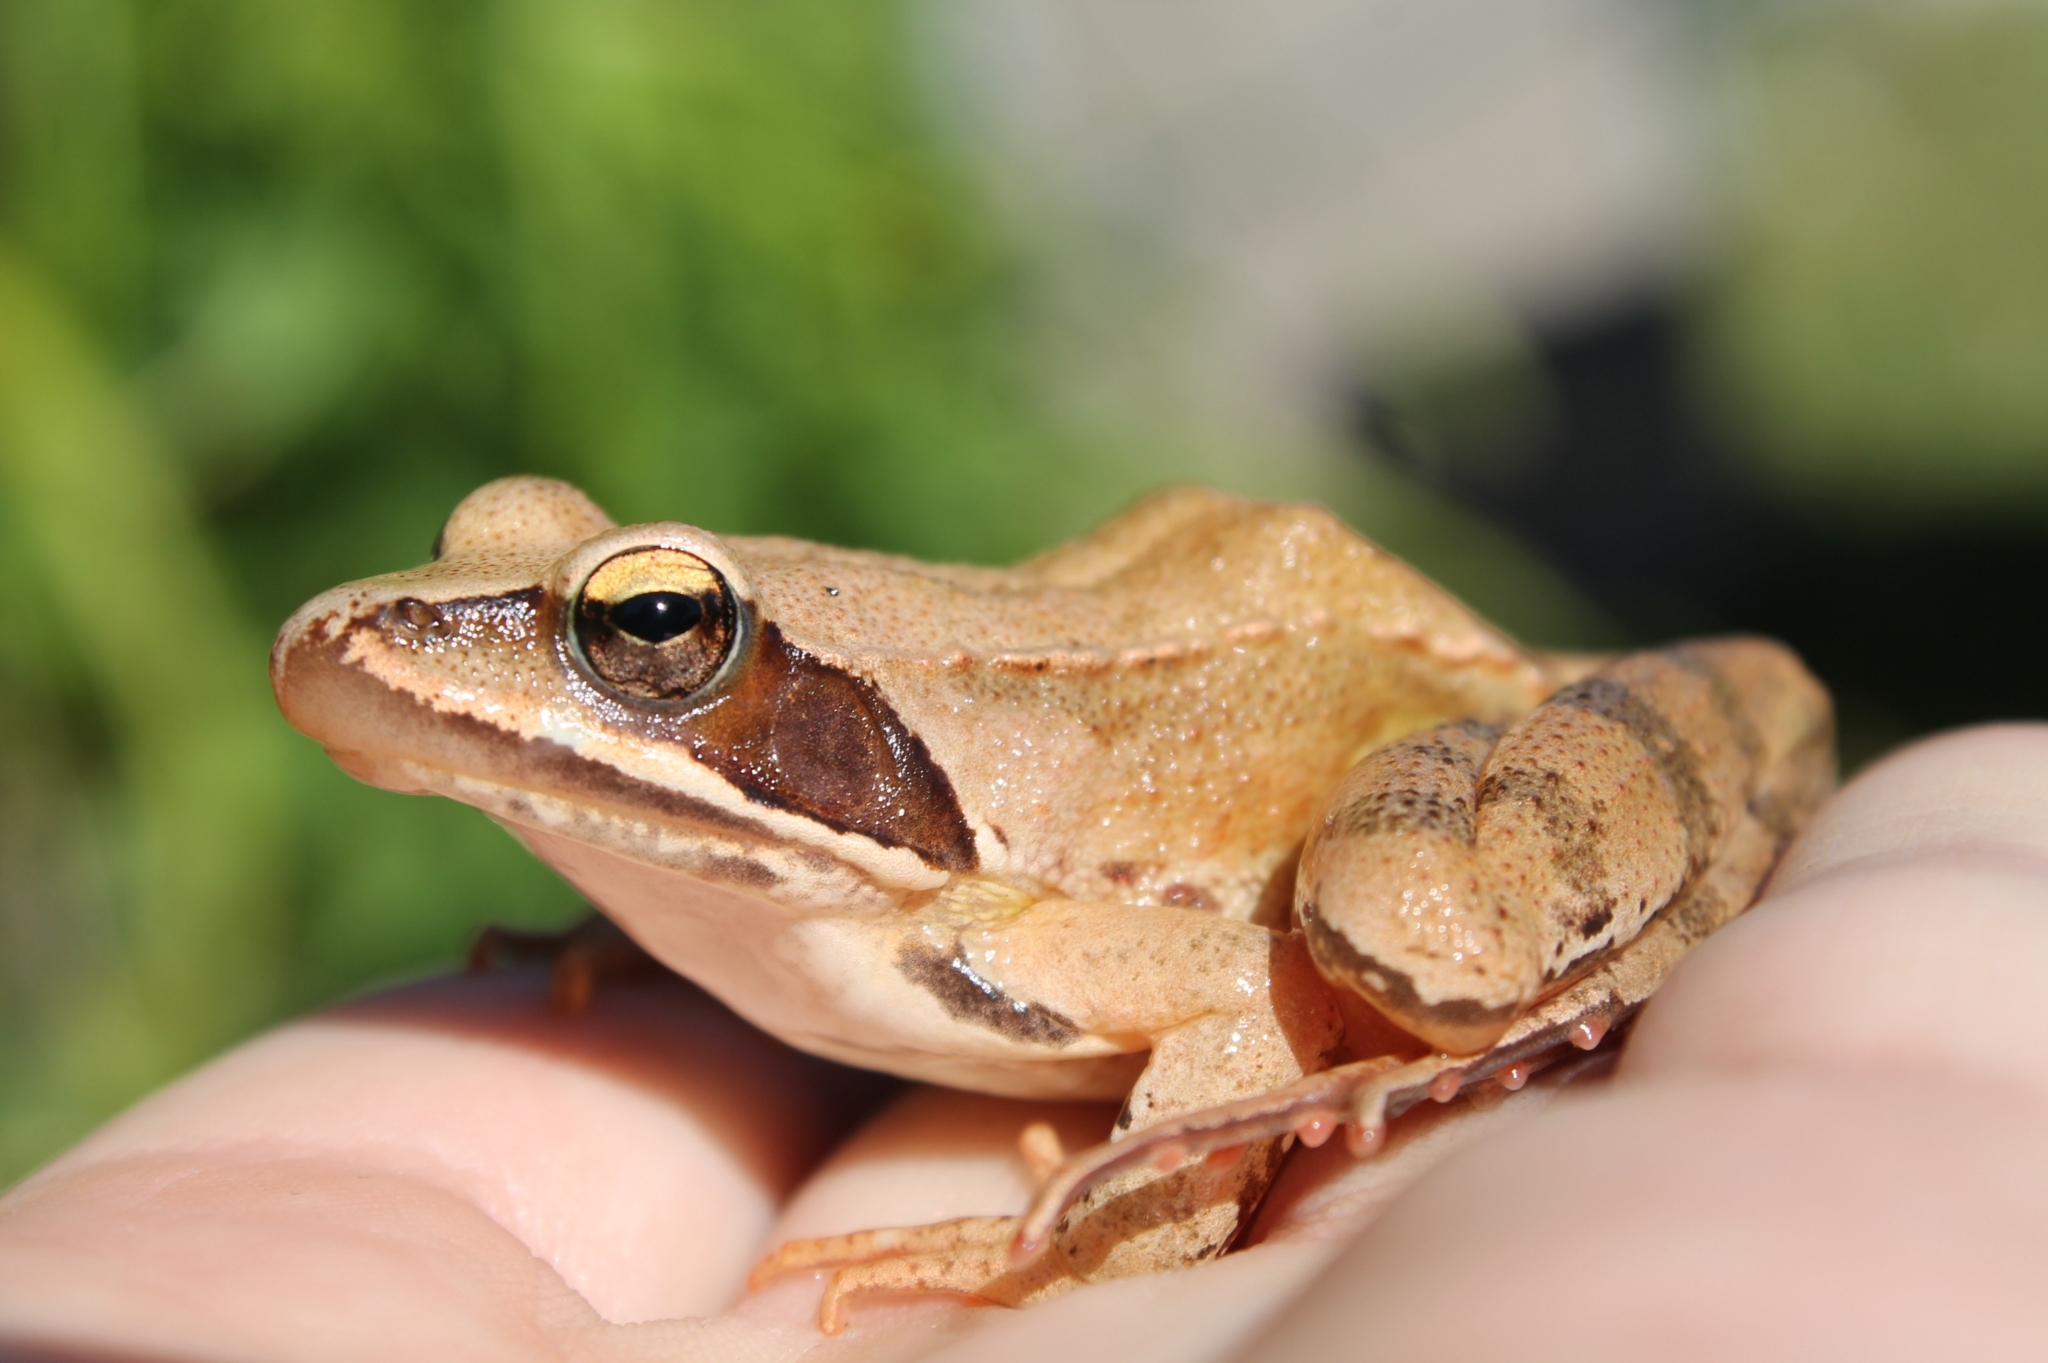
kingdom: Animalia
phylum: Chordata
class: Amphibia
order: Anura
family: Ranidae
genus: Rana
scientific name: Rana dalmatina
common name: Agile frog
